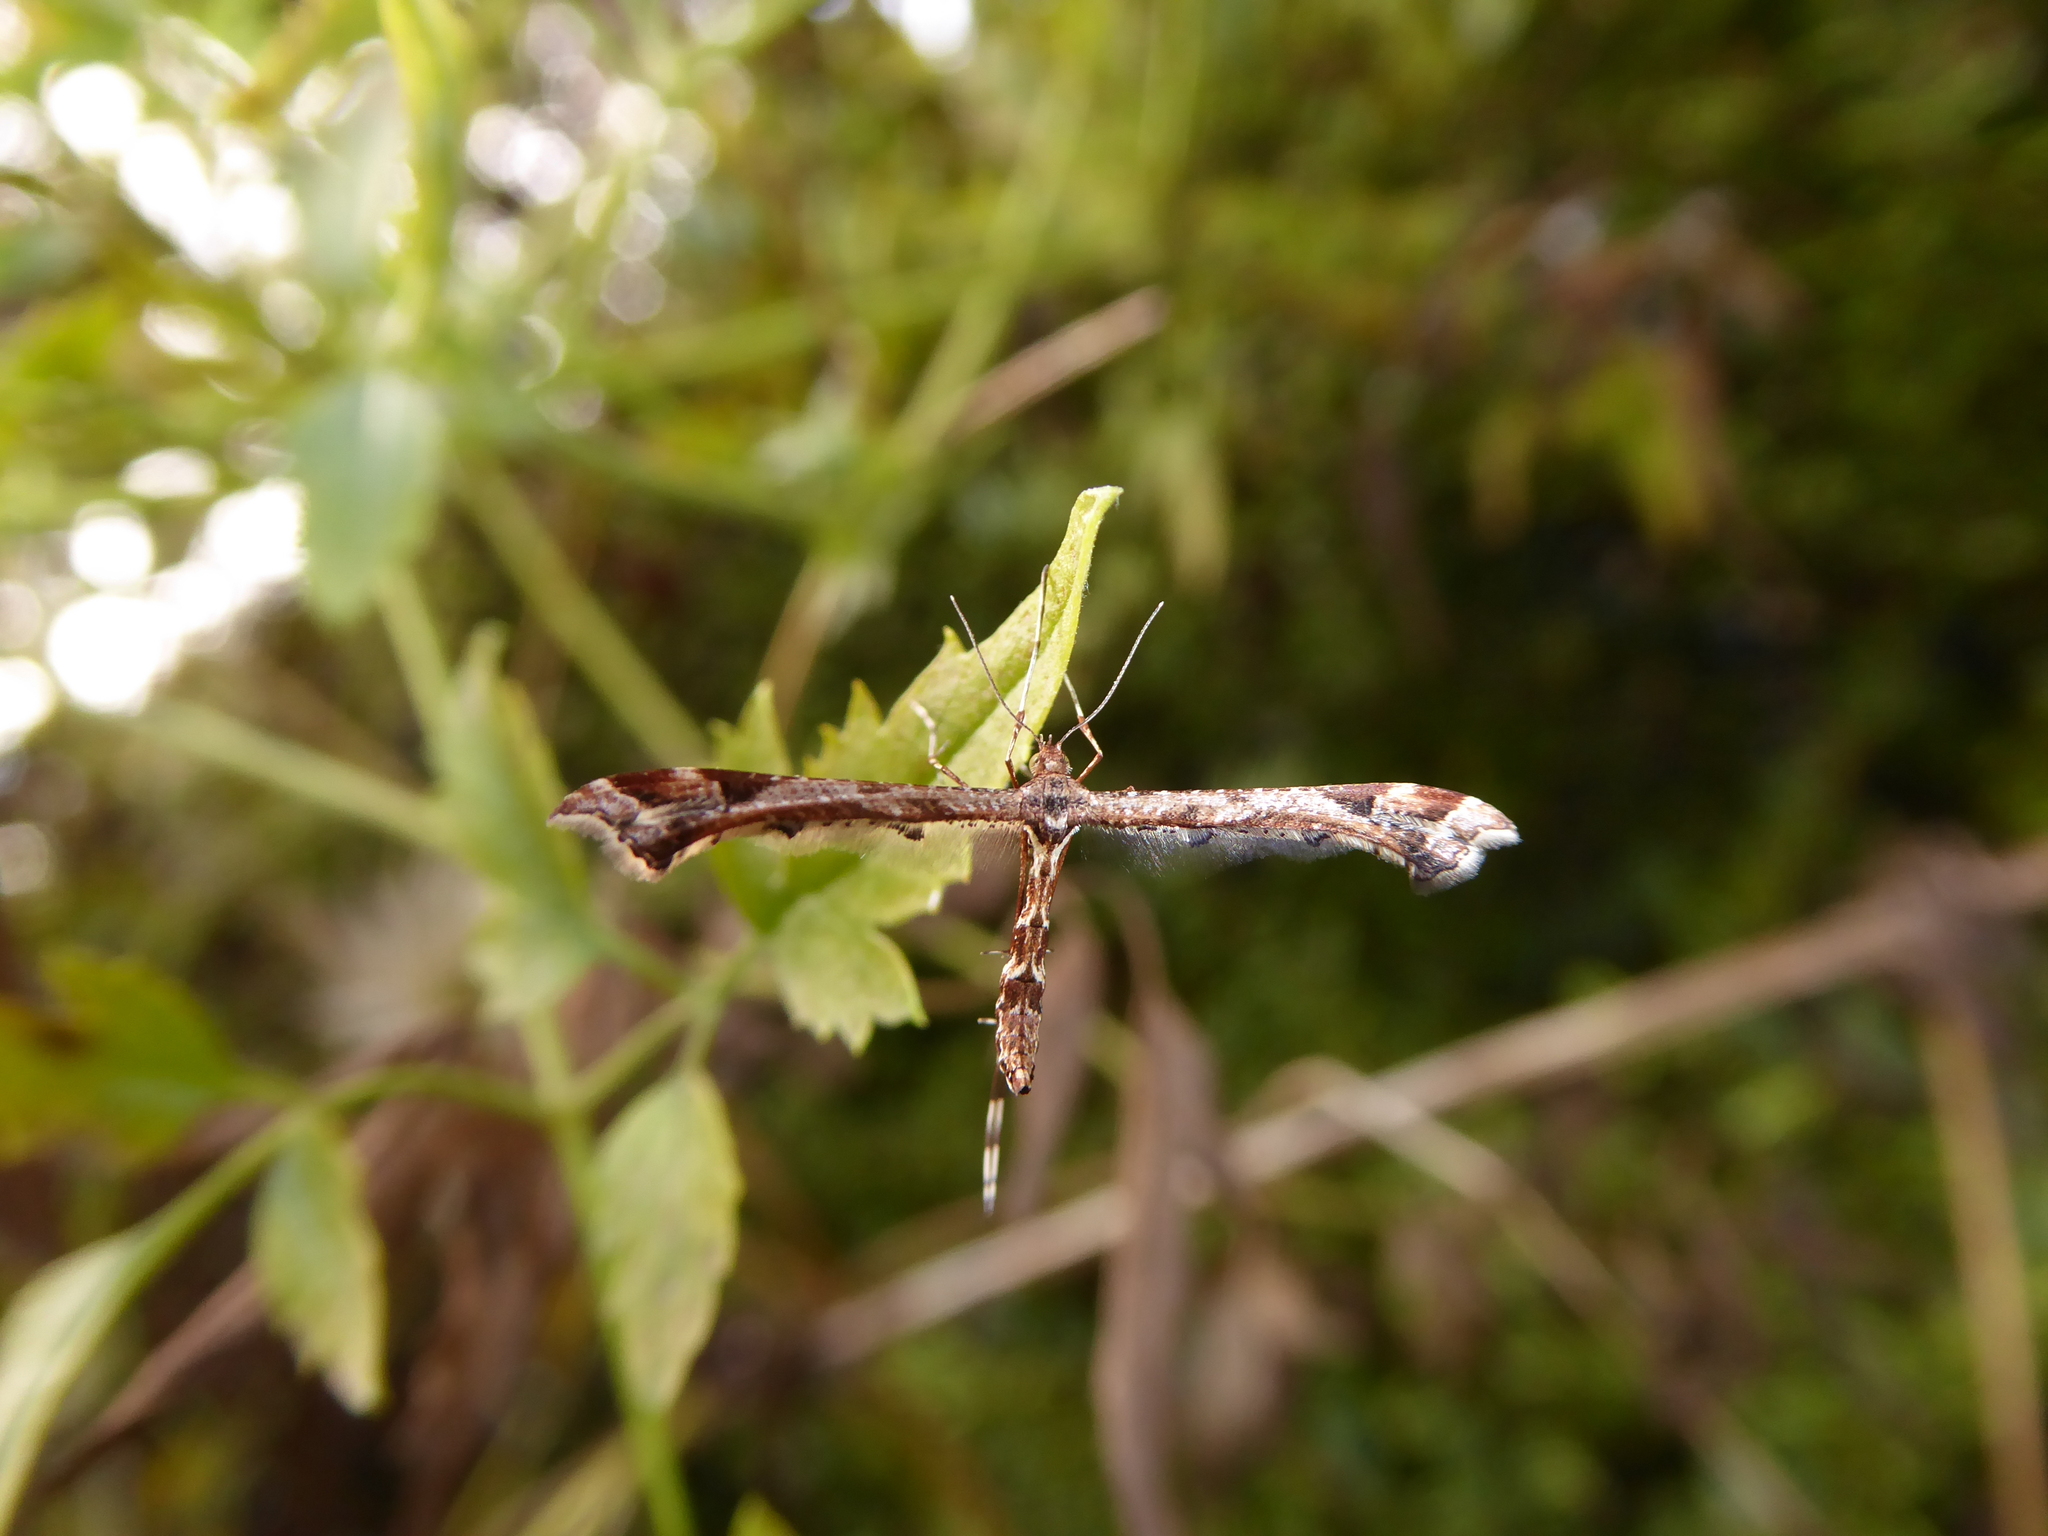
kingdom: Animalia
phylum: Arthropoda
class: Insecta
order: Lepidoptera
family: Pterophoridae
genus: Amblyptilia
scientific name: Amblyptilia acanthadactyla
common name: Beautiful plume
